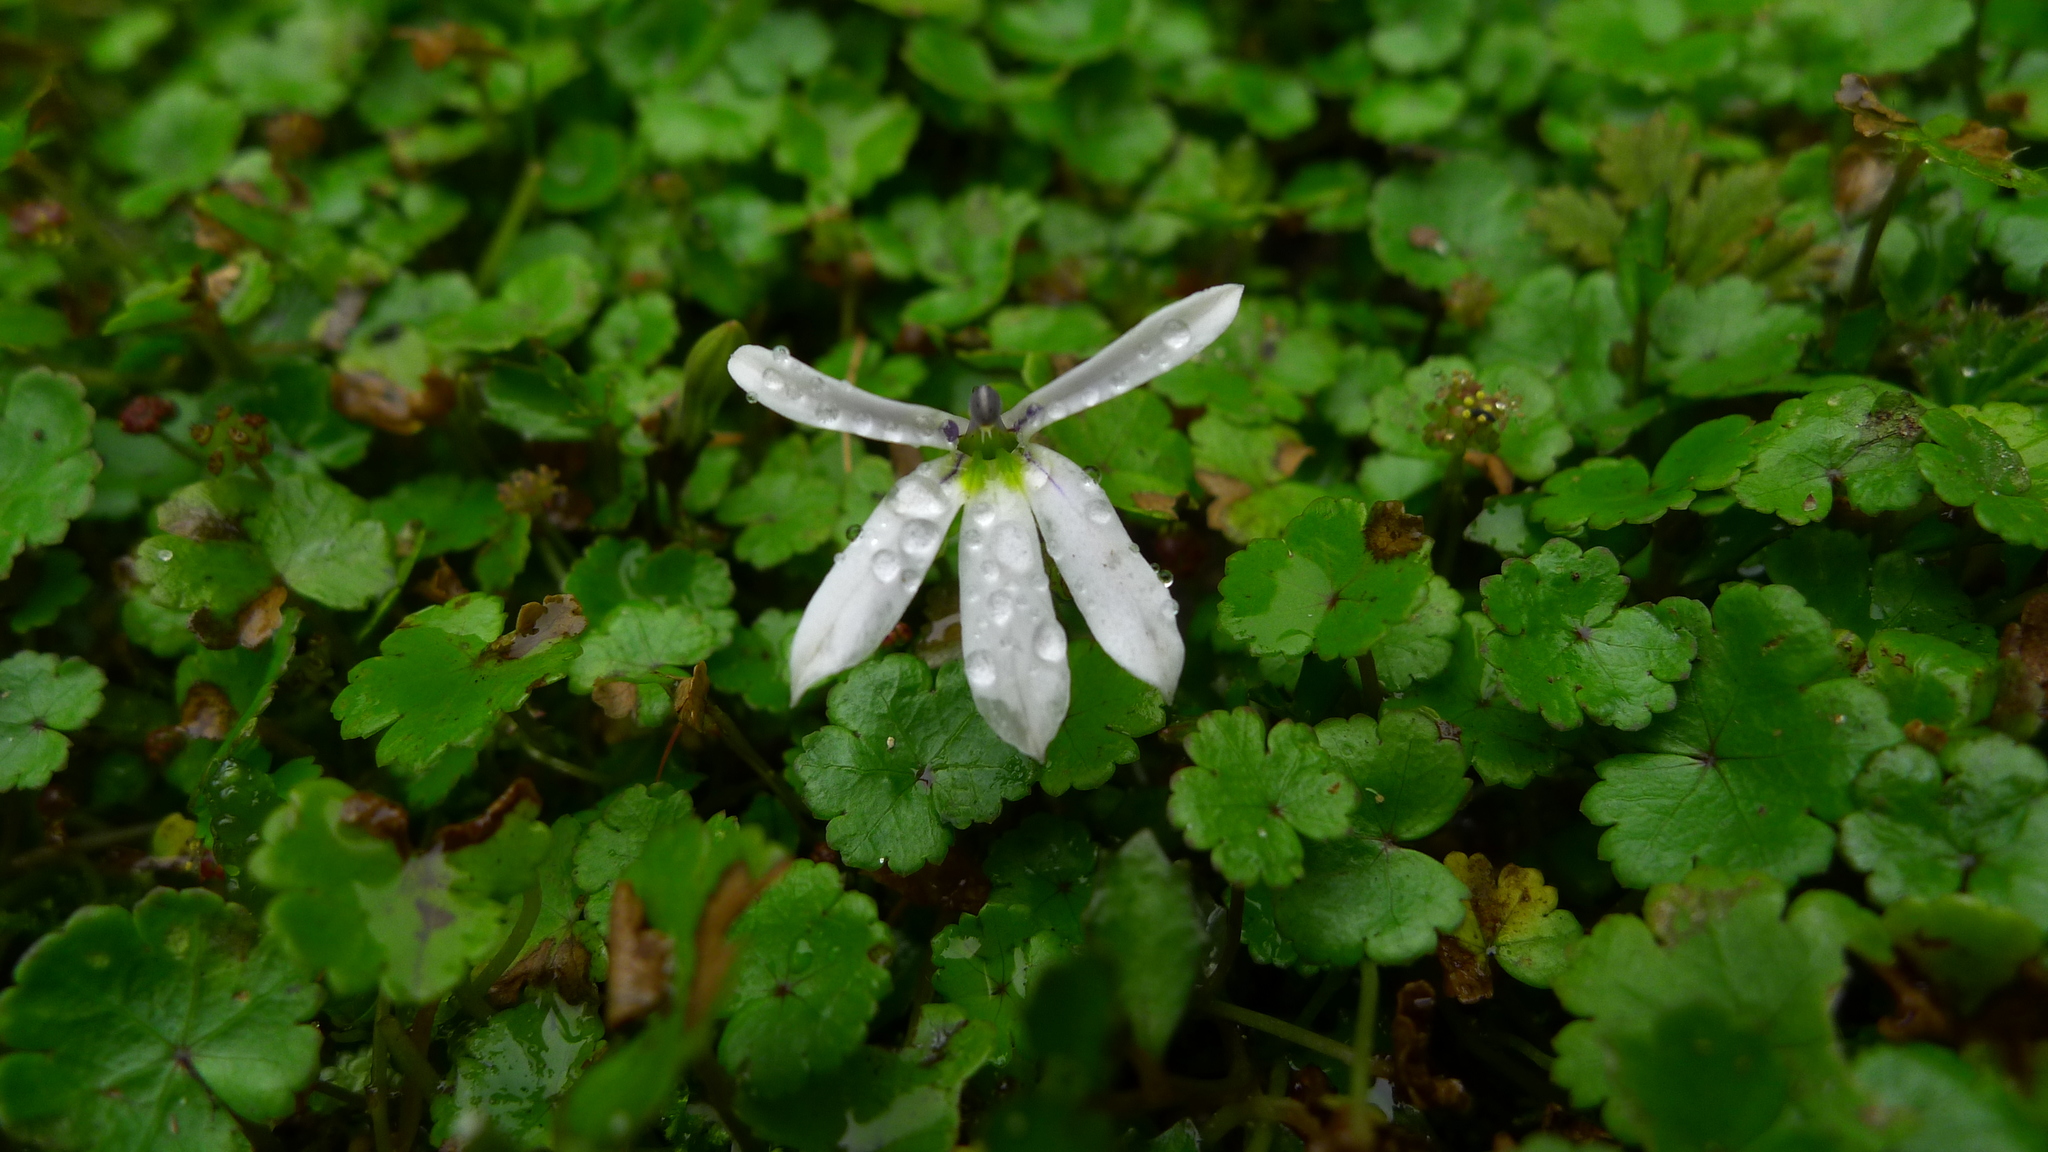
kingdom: Plantae
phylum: Tracheophyta
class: Magnoliopsida
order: Asterales
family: Campanulaceae
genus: Lobelia
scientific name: Lobelia angulata
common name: Lawn lobelia
